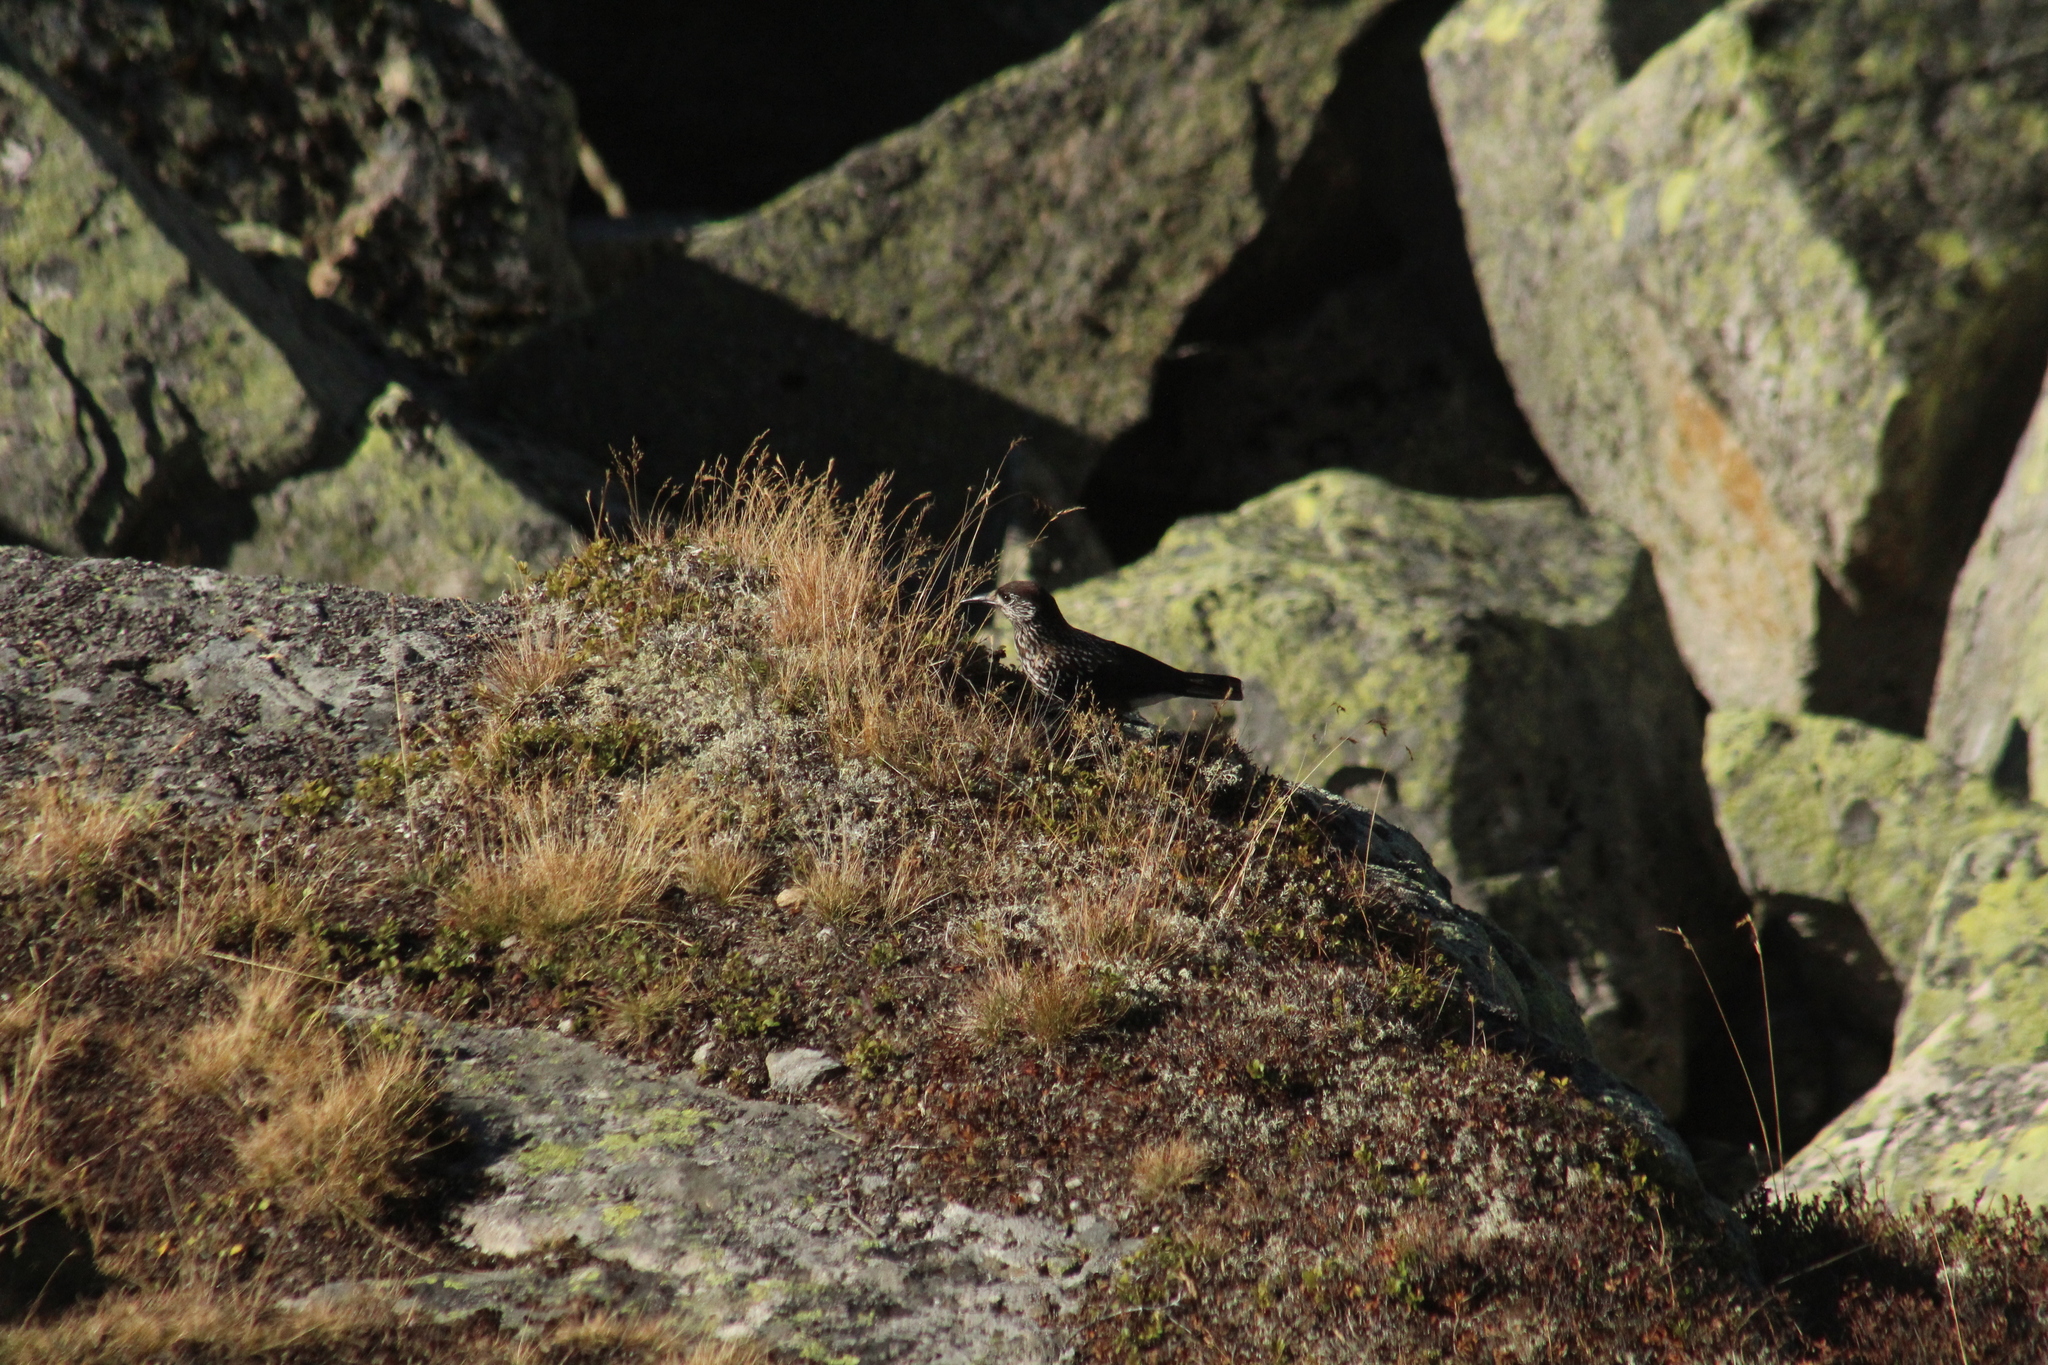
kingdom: Animalia
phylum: Chordata
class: Aves
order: Passeriformes
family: Corvidae
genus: Nucifraga
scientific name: Nucifraga caryocatactes
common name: Spotted nutcracker
